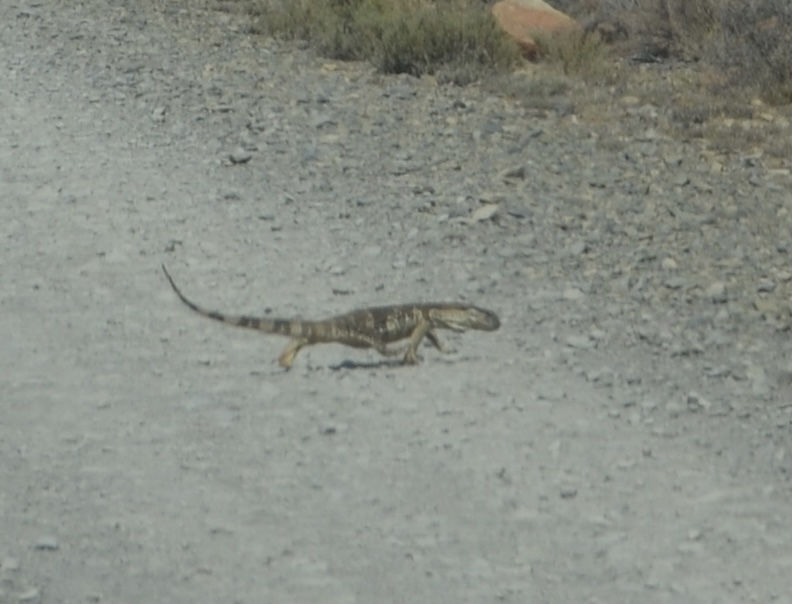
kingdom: Animalia
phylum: Chordata
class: Squamata
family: Varanidae
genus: Varanus
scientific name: Varanus albigularis
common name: White-throated monitor
